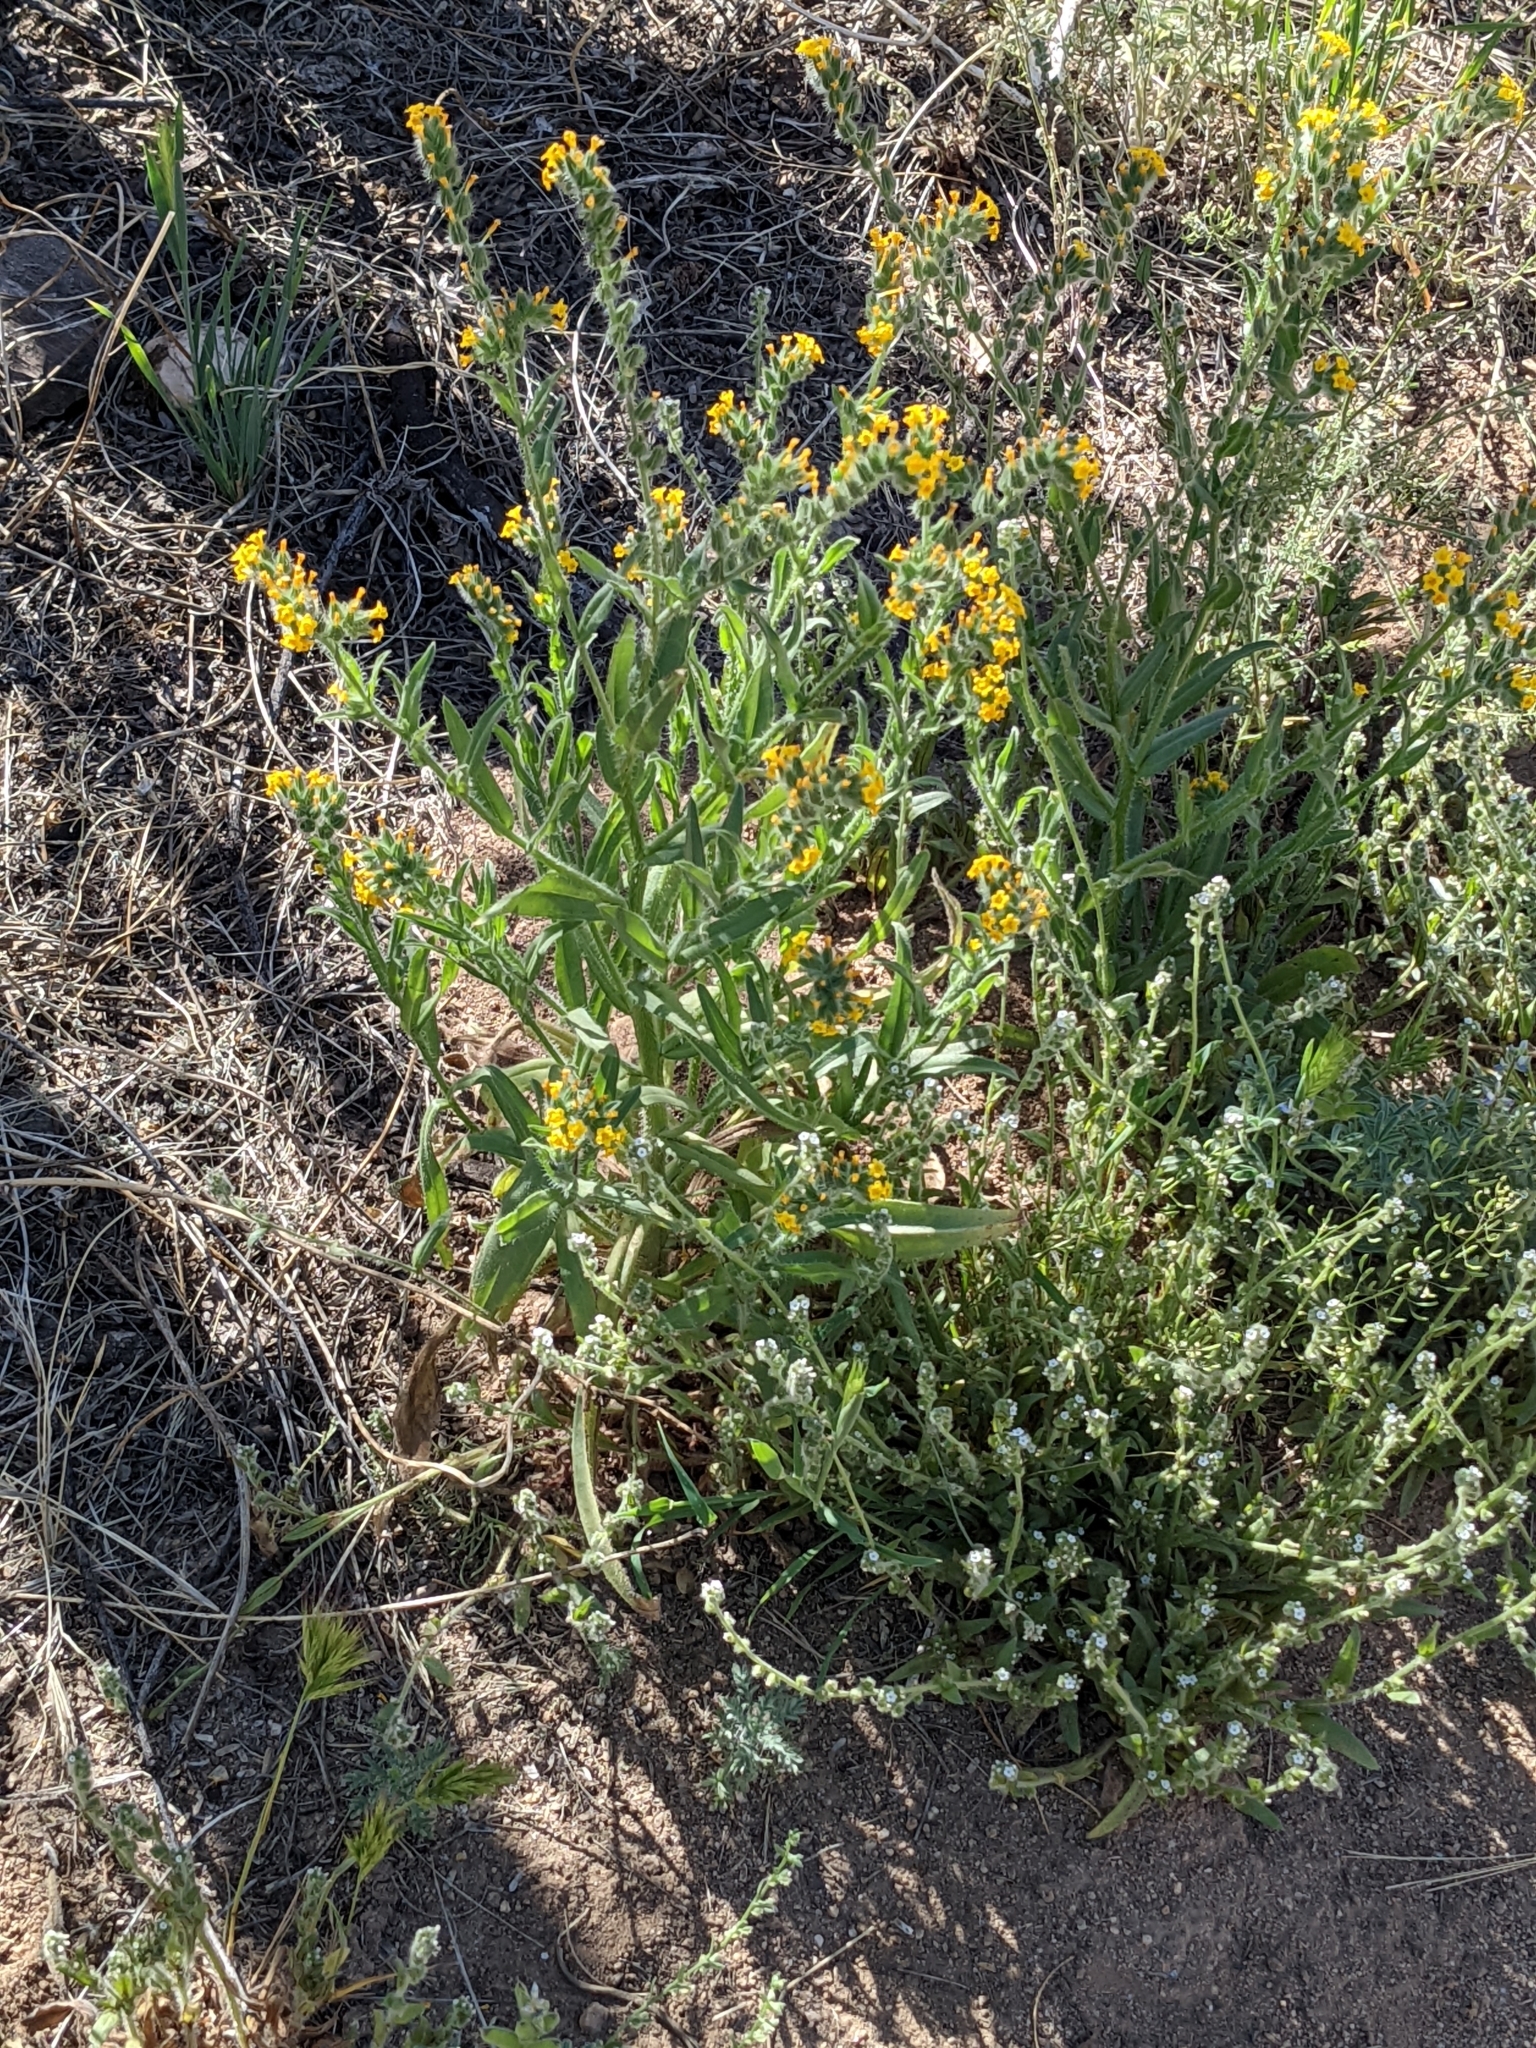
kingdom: Plantae
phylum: Tracheophyta
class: Magnoliopsida
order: Boraginales
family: Boraginaceae
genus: Amsinckia
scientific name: Amsinckia
